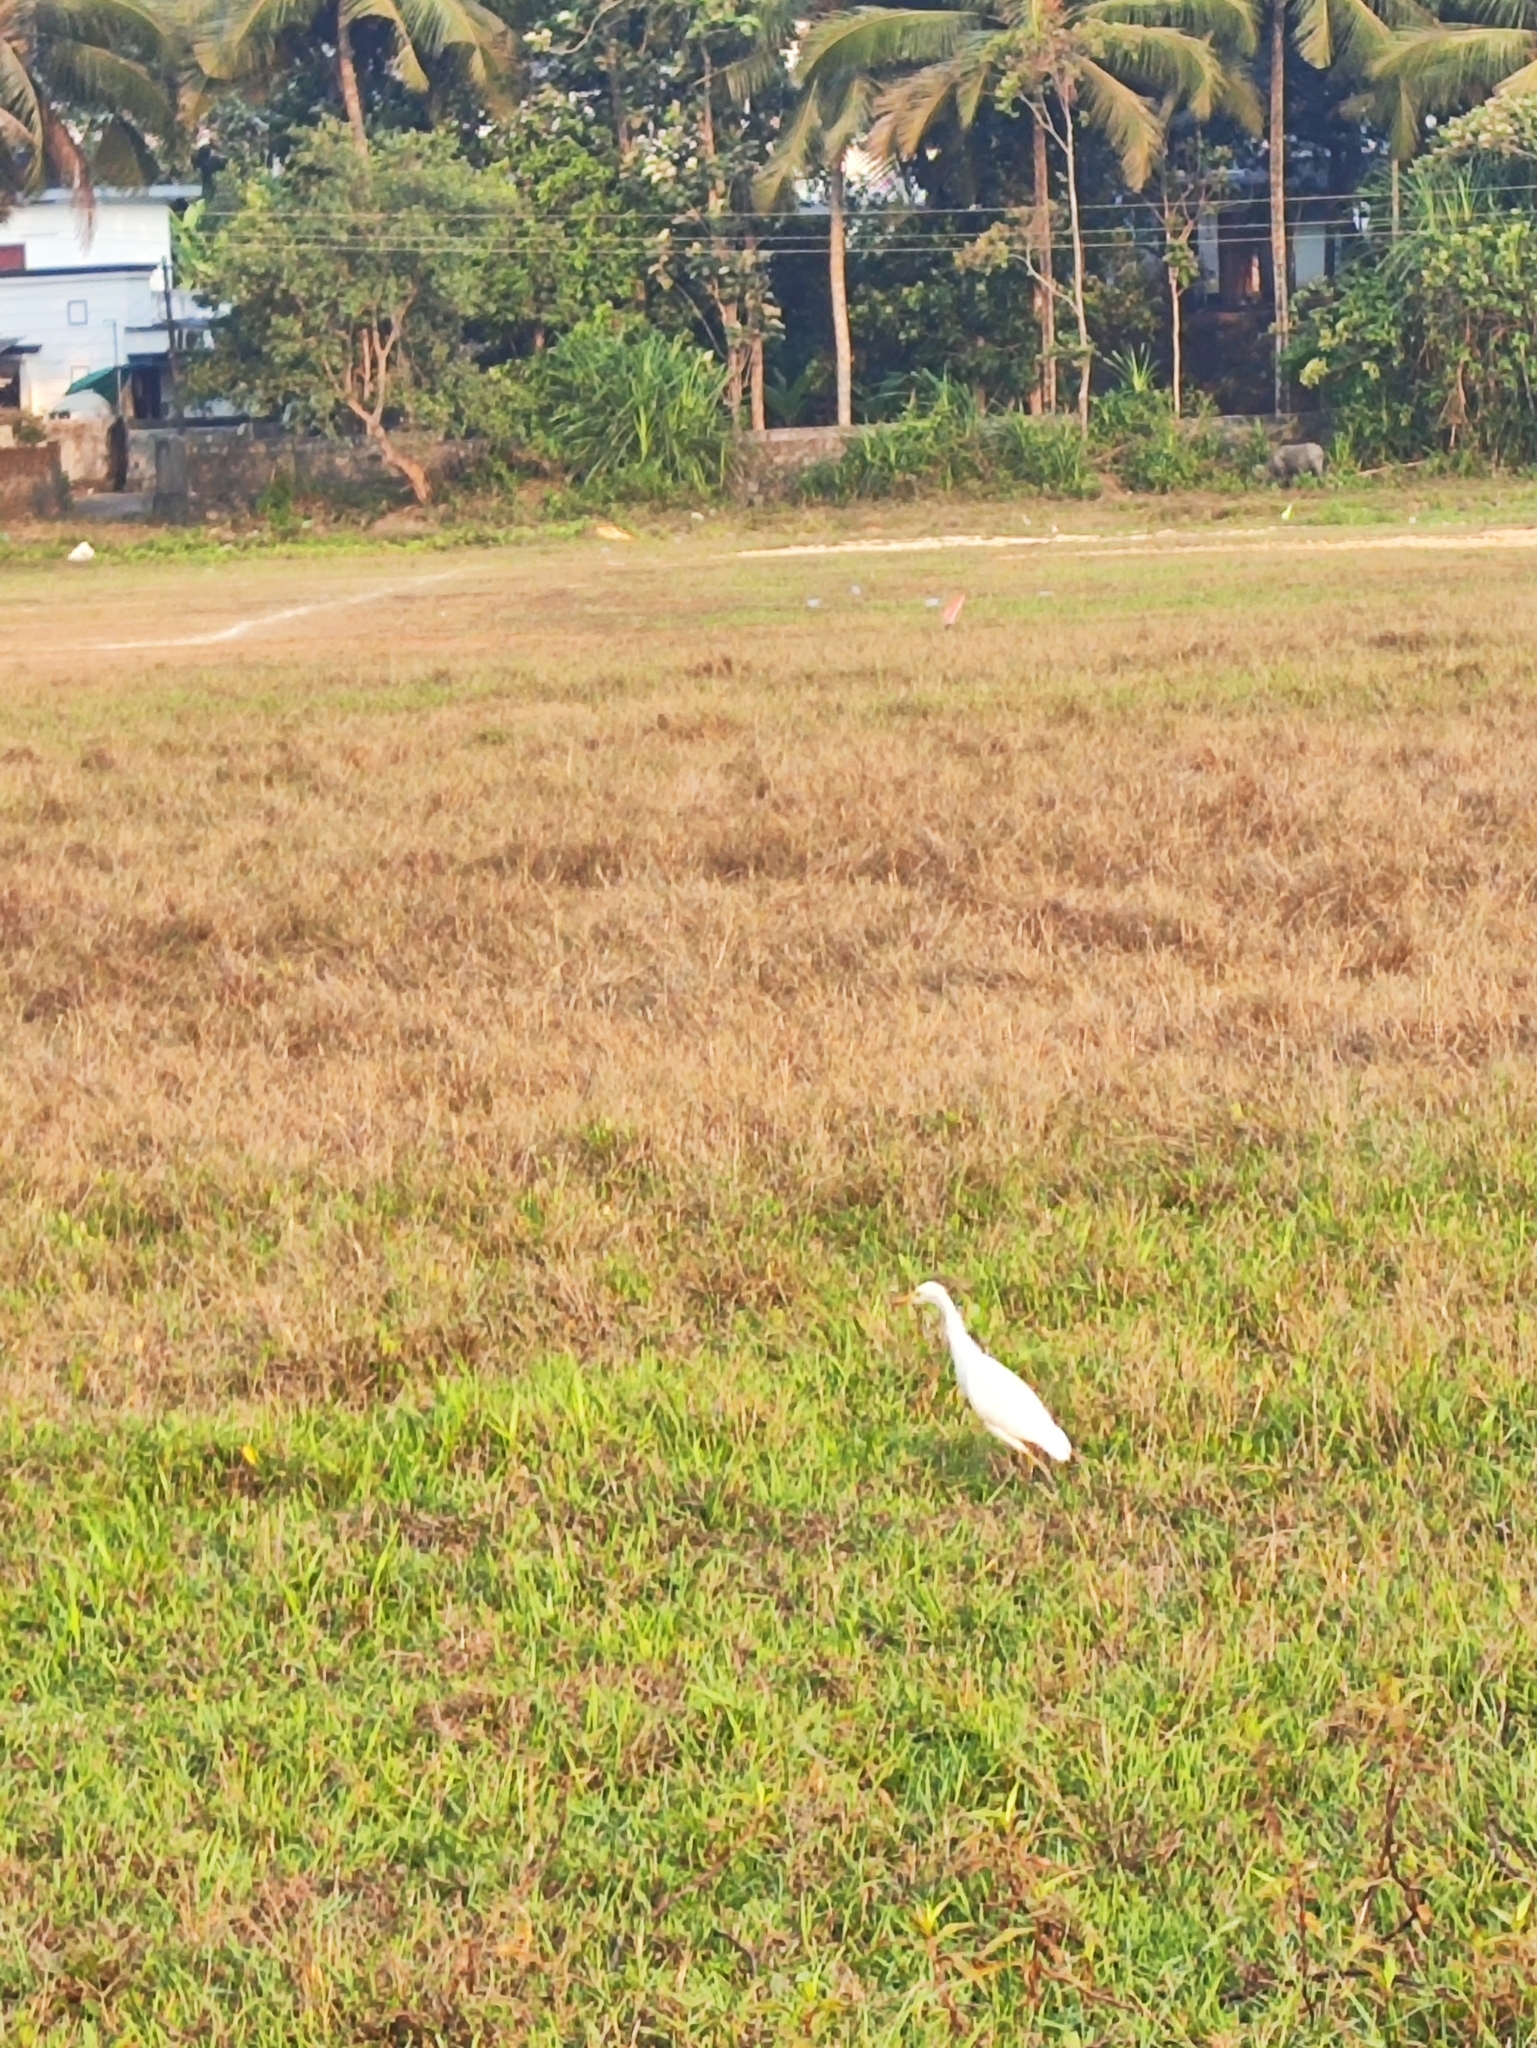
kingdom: Animalia
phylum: Chordata
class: Aves
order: Pelecaniformes
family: Ardeidae
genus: Bubulcus
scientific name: Bubulcus coromandus
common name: Eastern cattle egret
